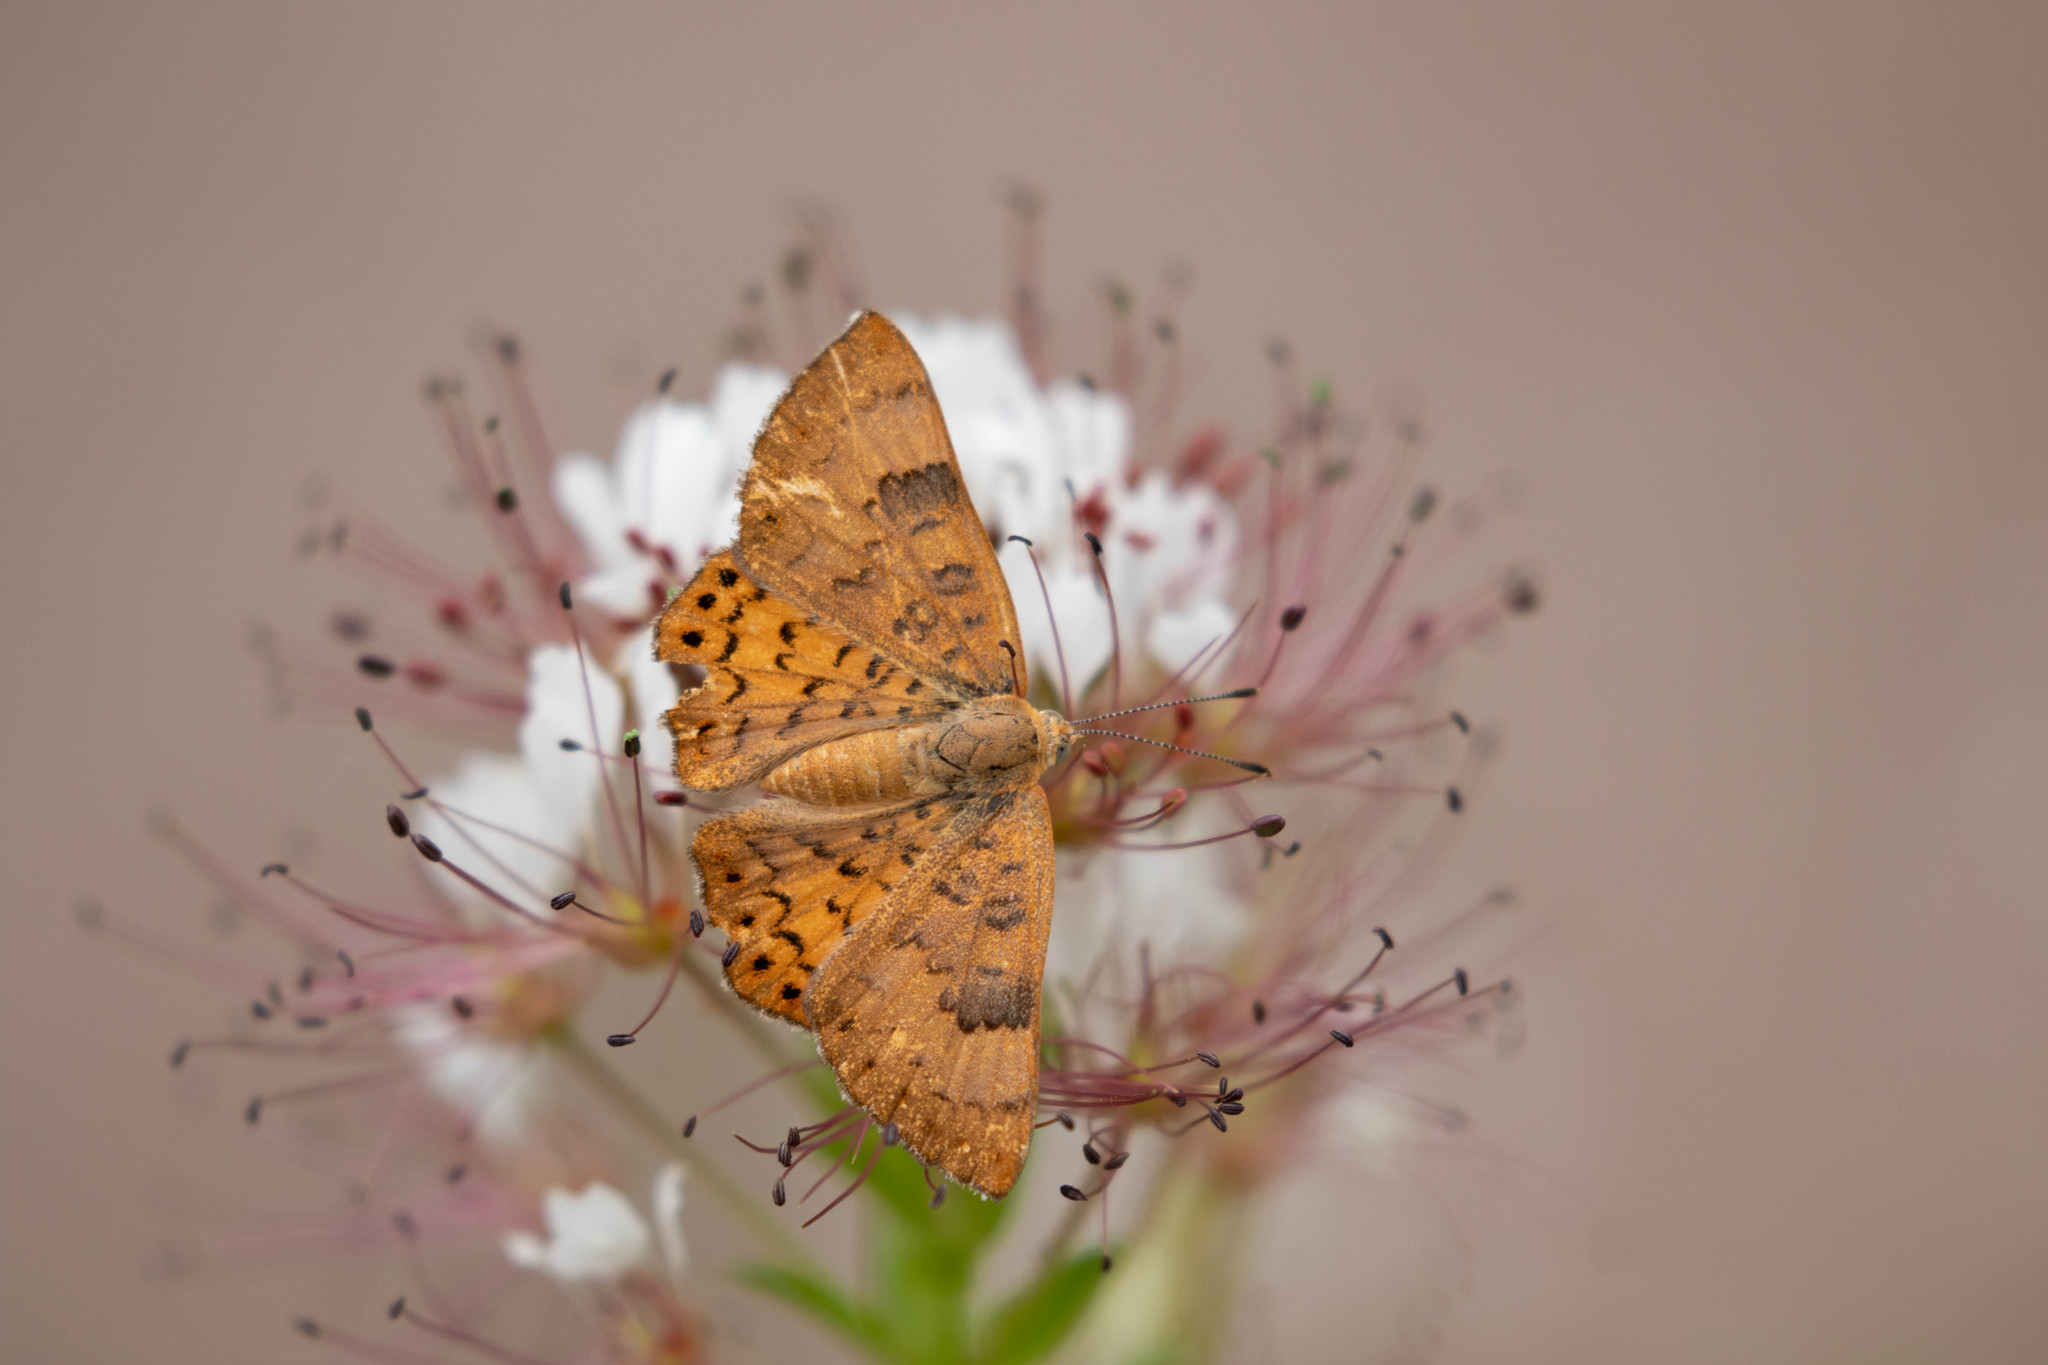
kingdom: Animalia
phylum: Arthropoda
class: Insecta
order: Lepidoptera
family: Riodinidae
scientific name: Riodinidae
